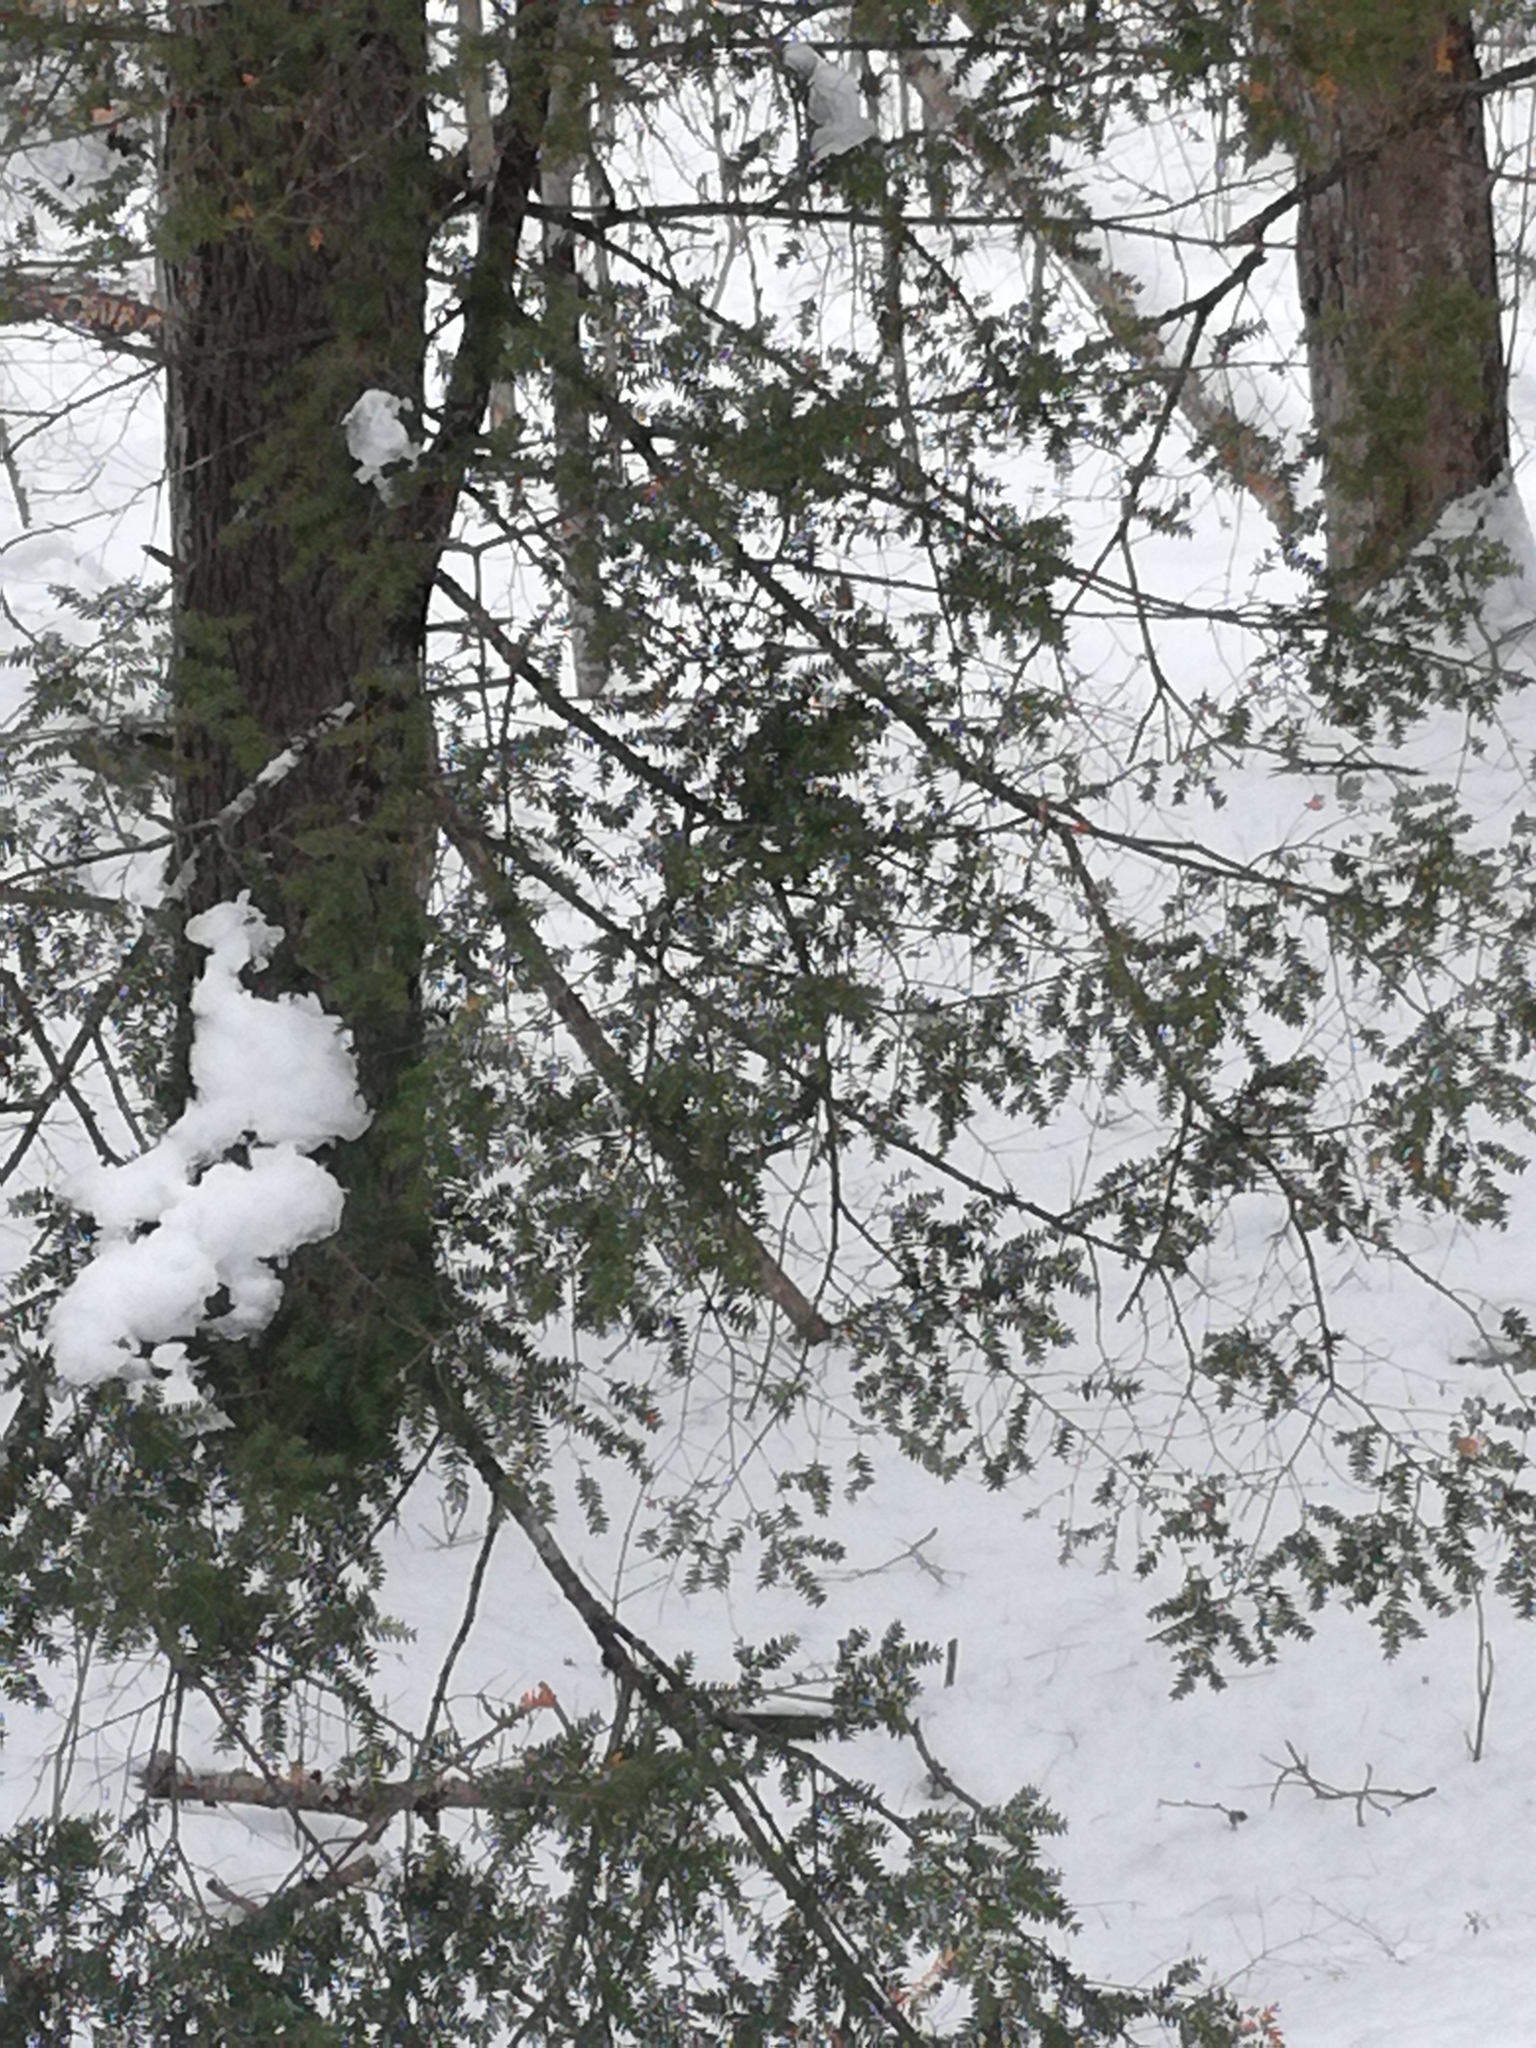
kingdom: Plantae
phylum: Tracheophyta
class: Pinopsida
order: Pinales
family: Pinaceae
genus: Tsuga
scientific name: Tsuga canadensis
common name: Eastern hemlock
